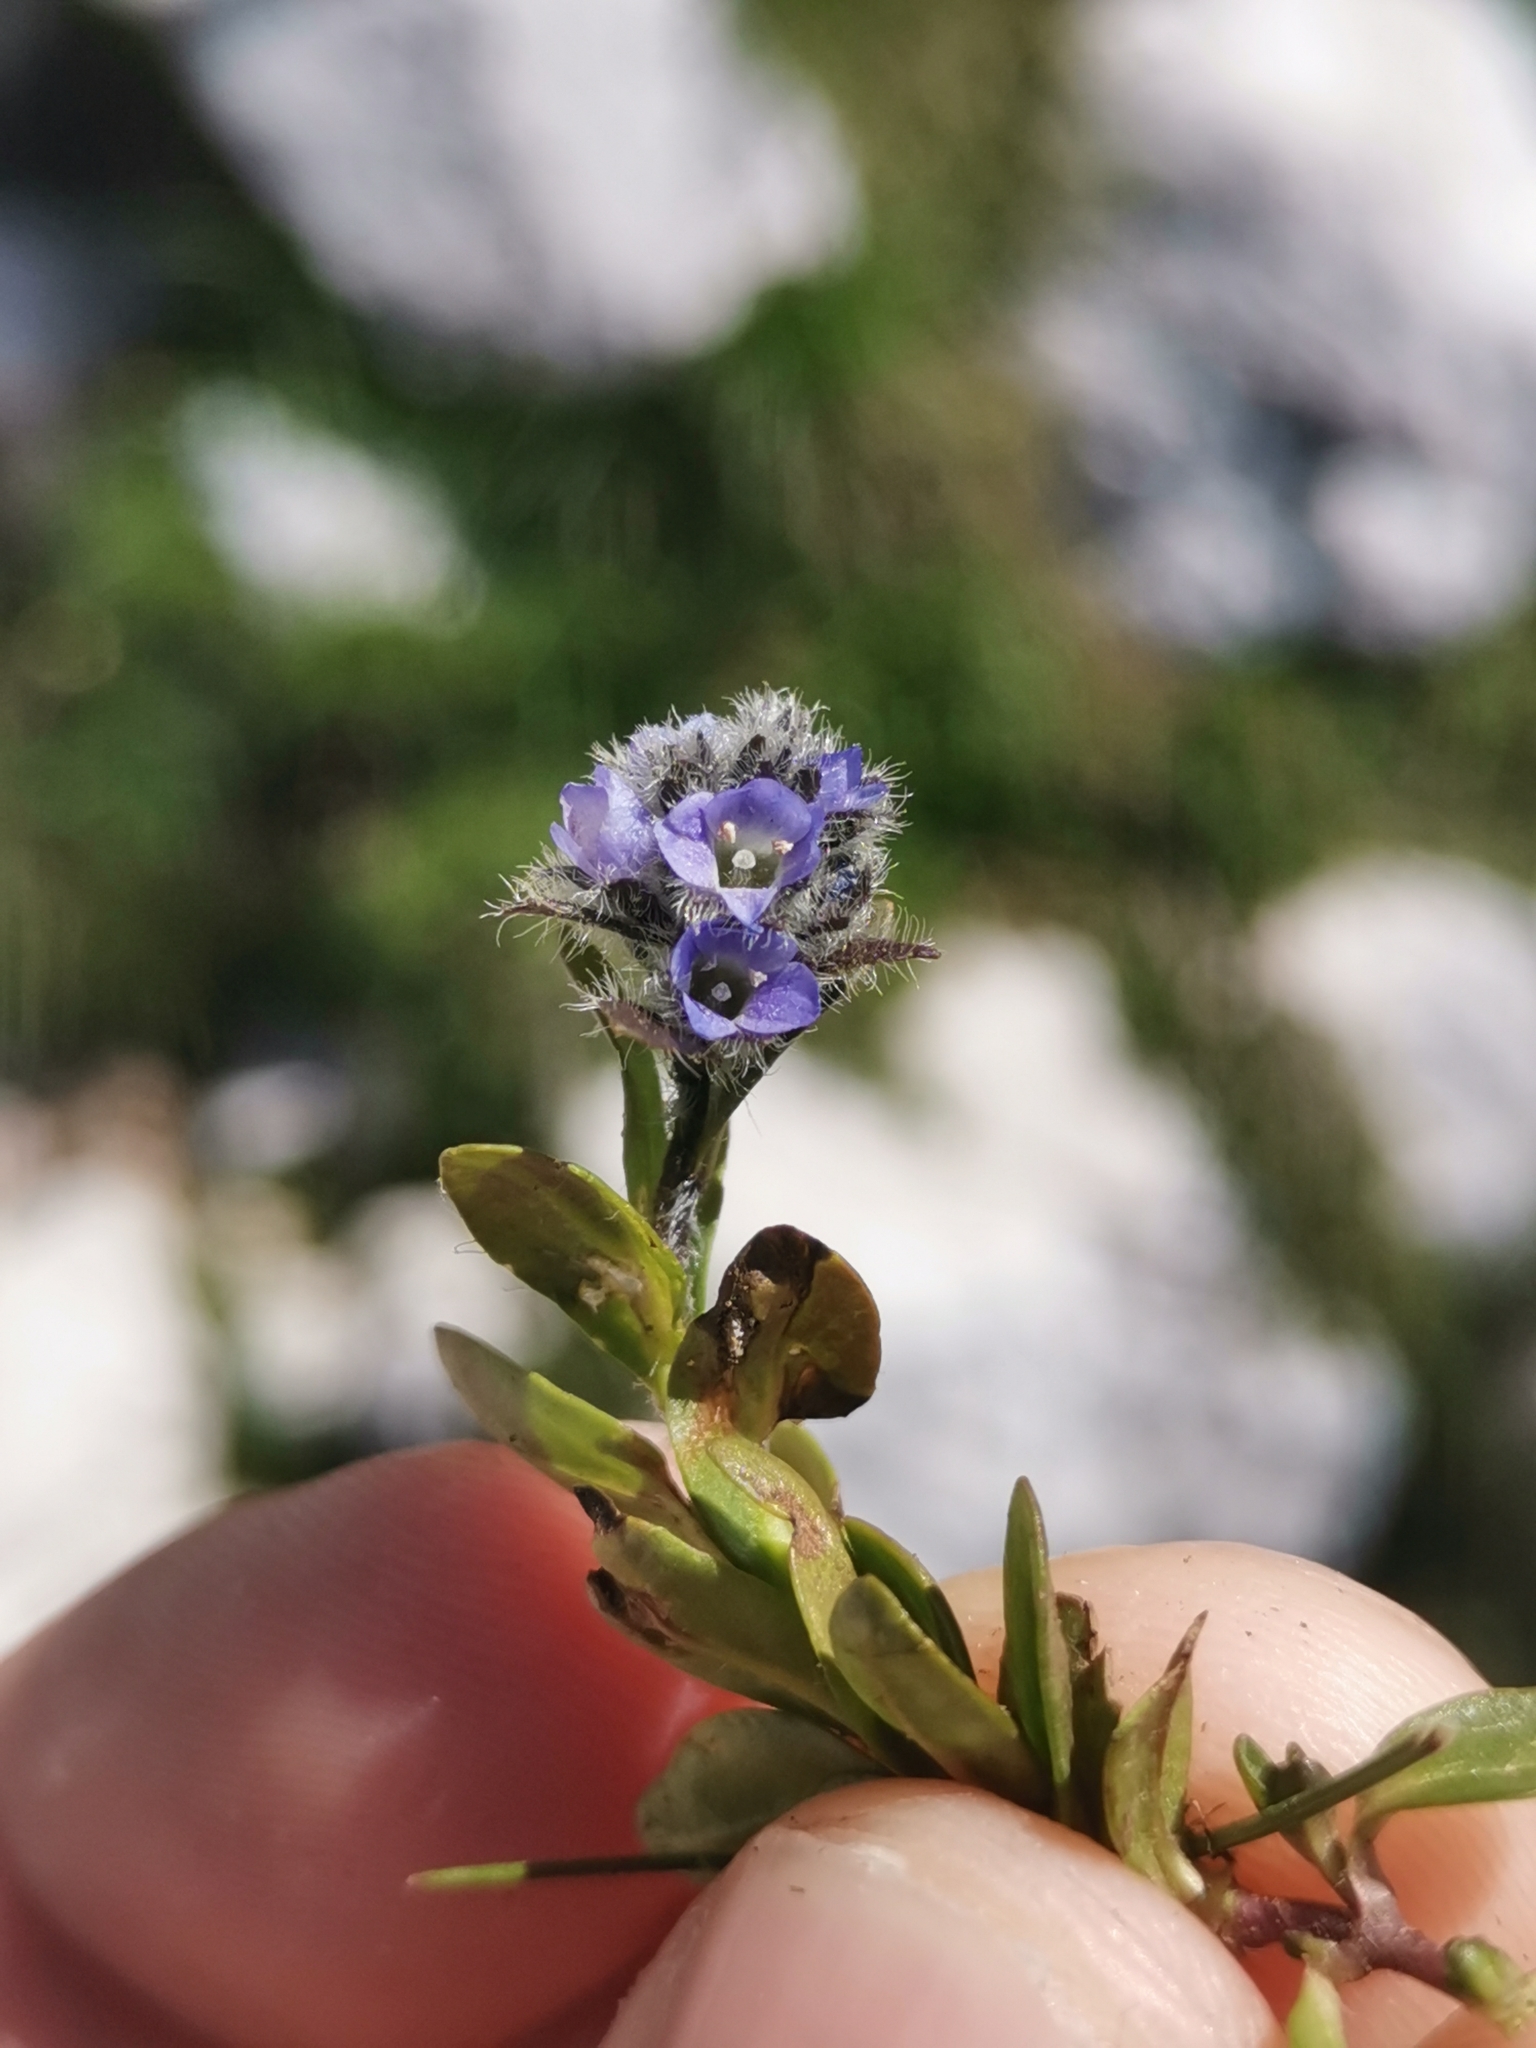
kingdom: Plantae
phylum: Tracheophyta
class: Magnoliopsida
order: Lamiales
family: Plantaginaceae
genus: Veronica
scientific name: Veronica alpina
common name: Alpine speedwell
